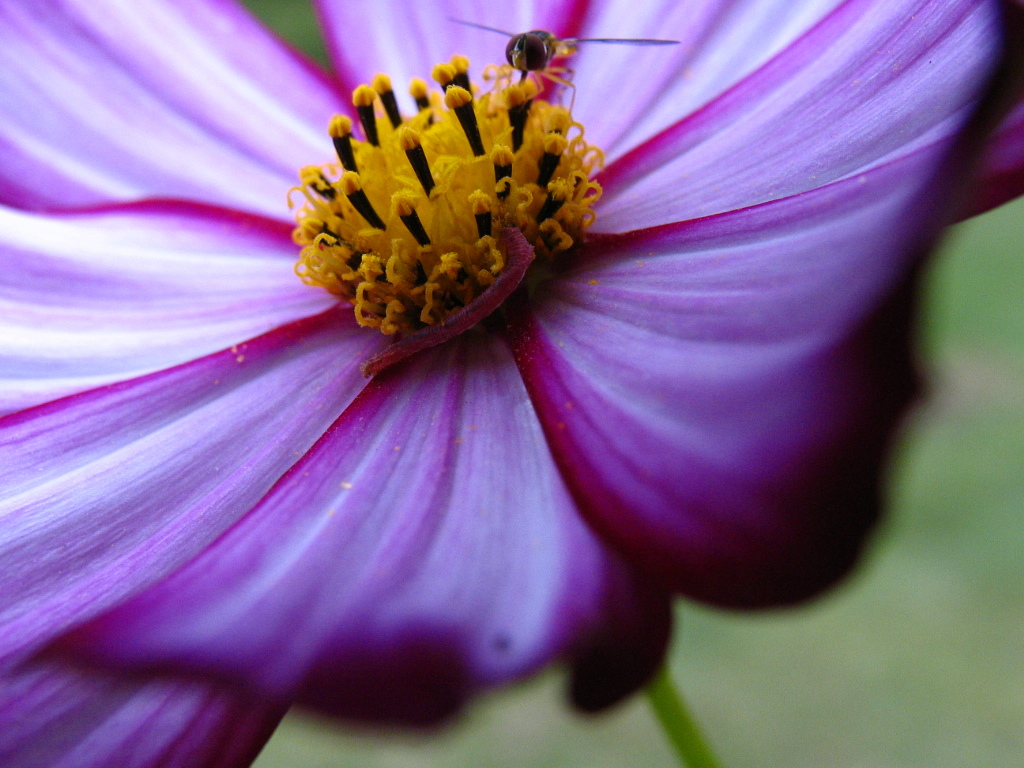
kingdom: Animalia
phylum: Arthropoda
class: Insecta
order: Diptera
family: Syrphidae
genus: Toxomerus
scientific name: Toxomerus geminatus
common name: Eastern calligrapher
